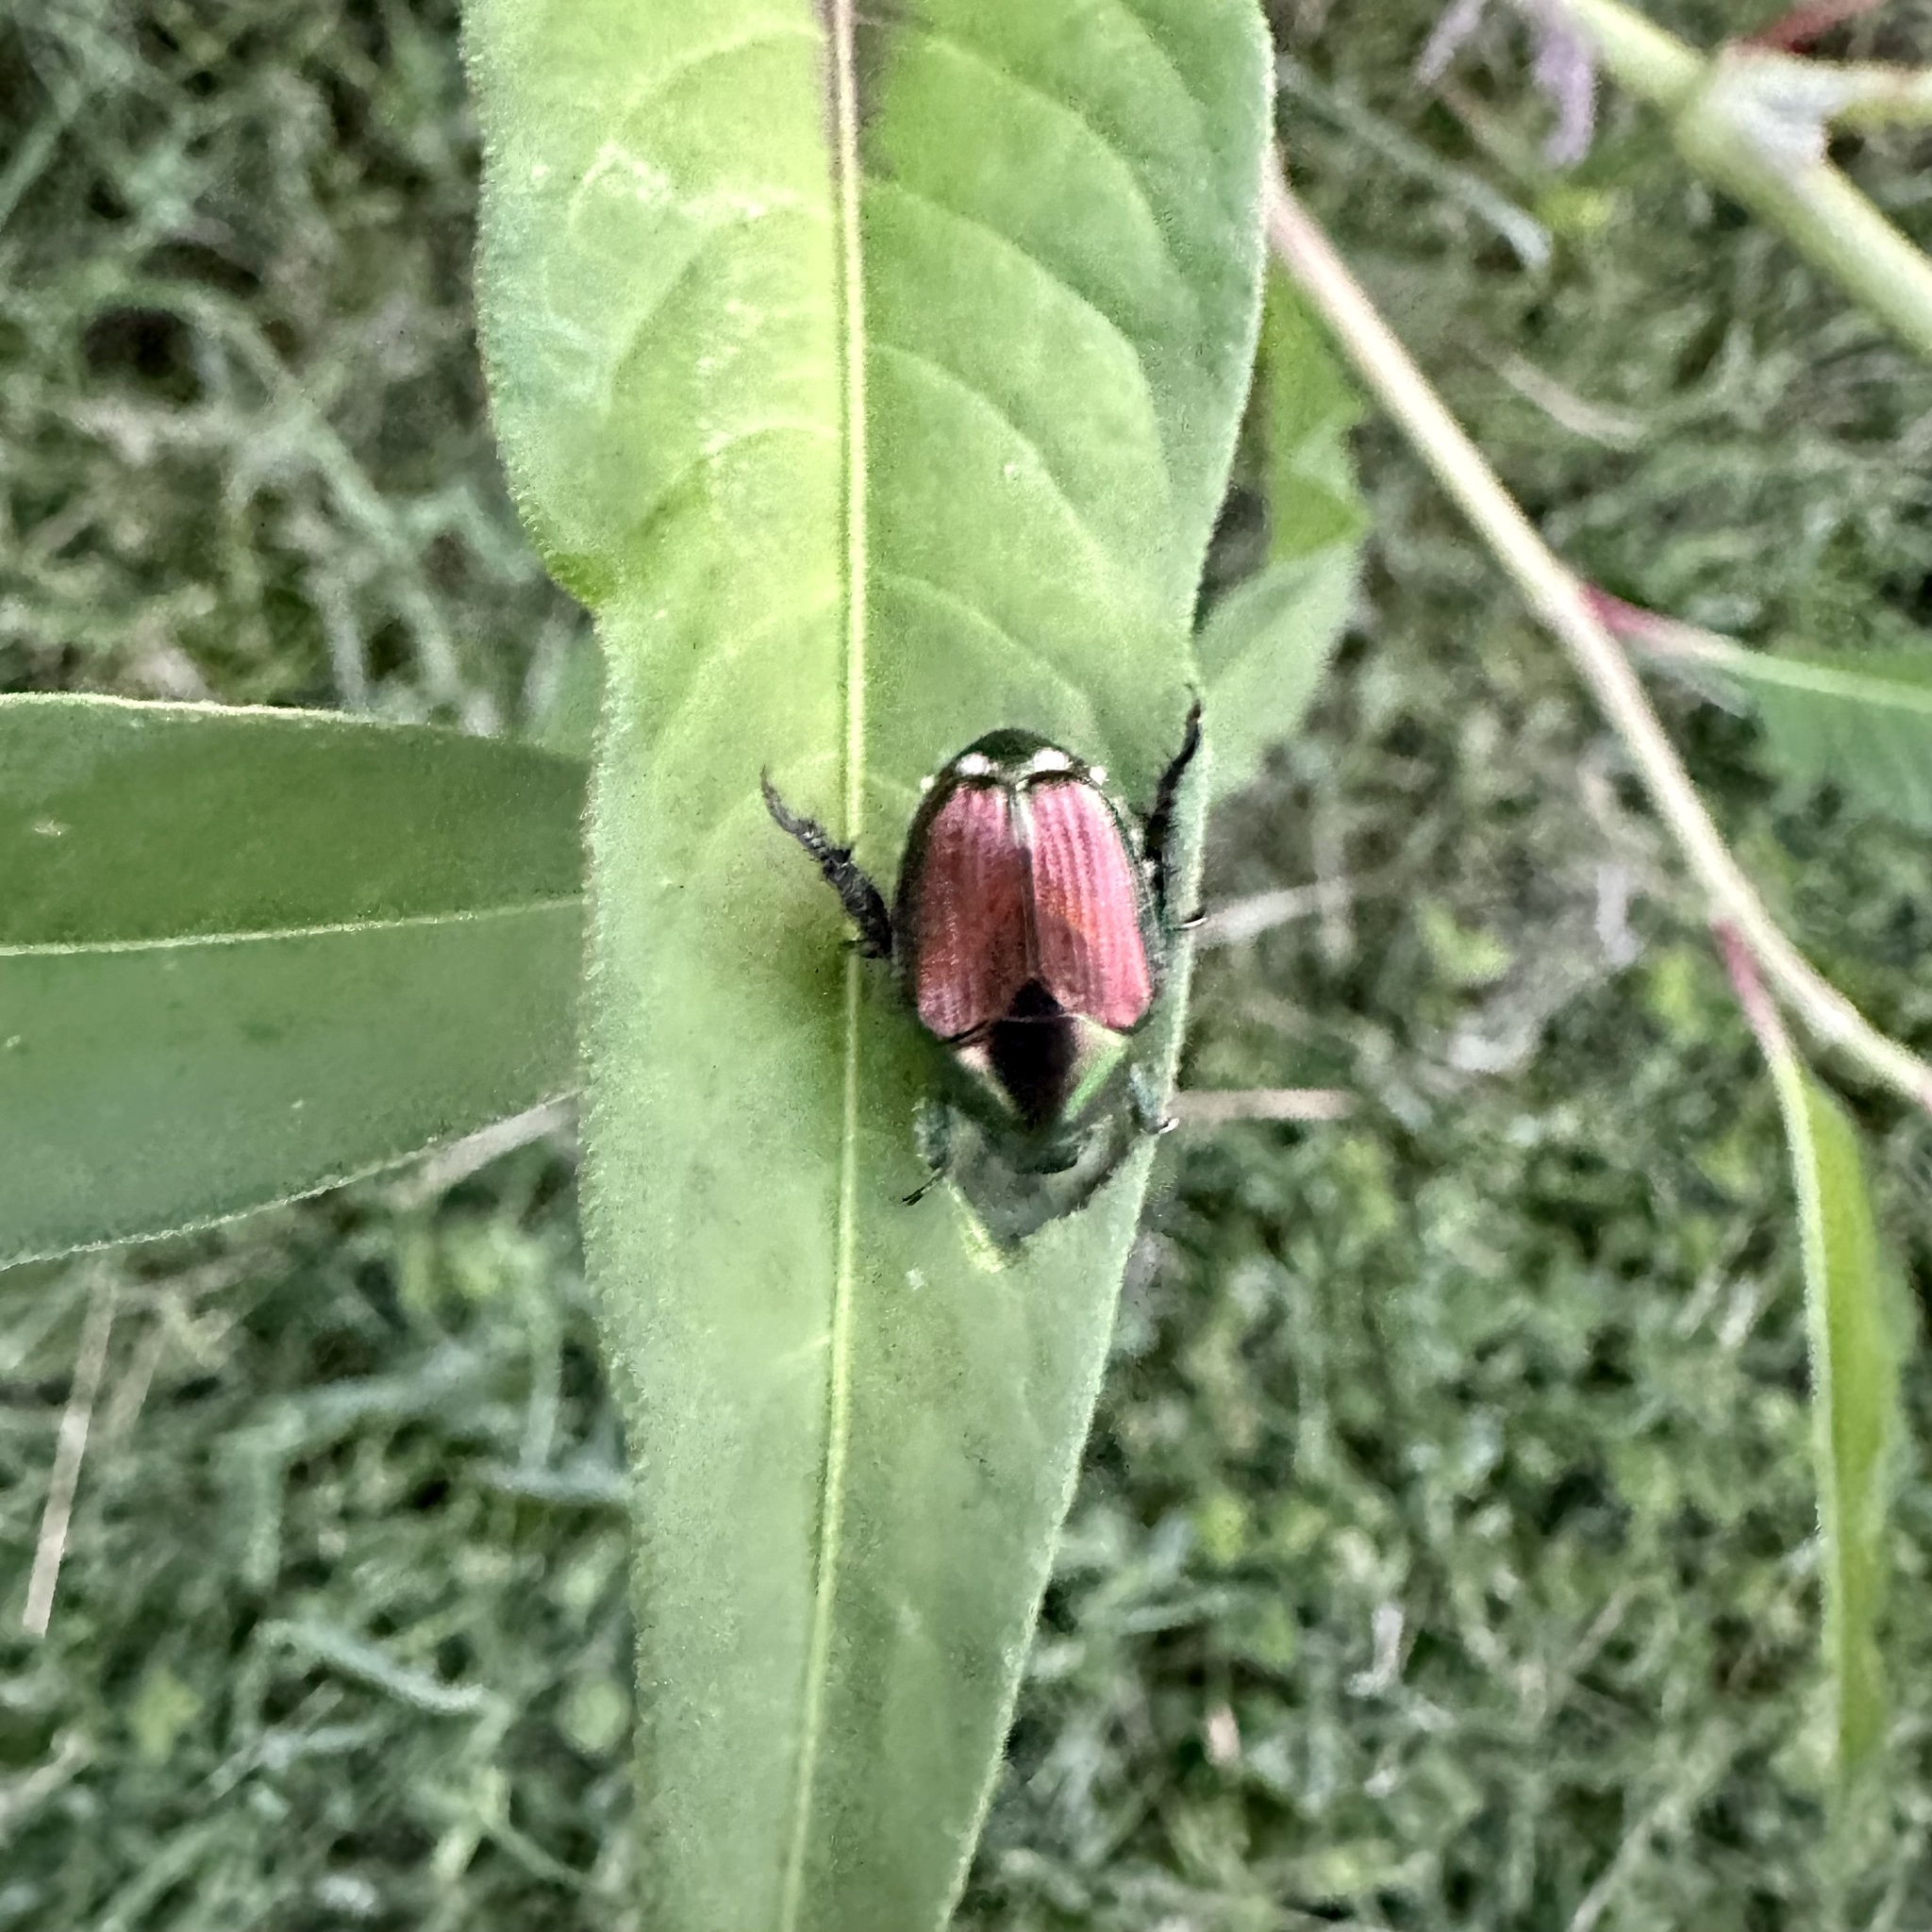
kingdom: Animalia
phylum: Arthropoda
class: Insecta
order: Coleoptera
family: Scarabaeidae
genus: Popillia
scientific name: Popillia japonica
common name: Japanese beetle
